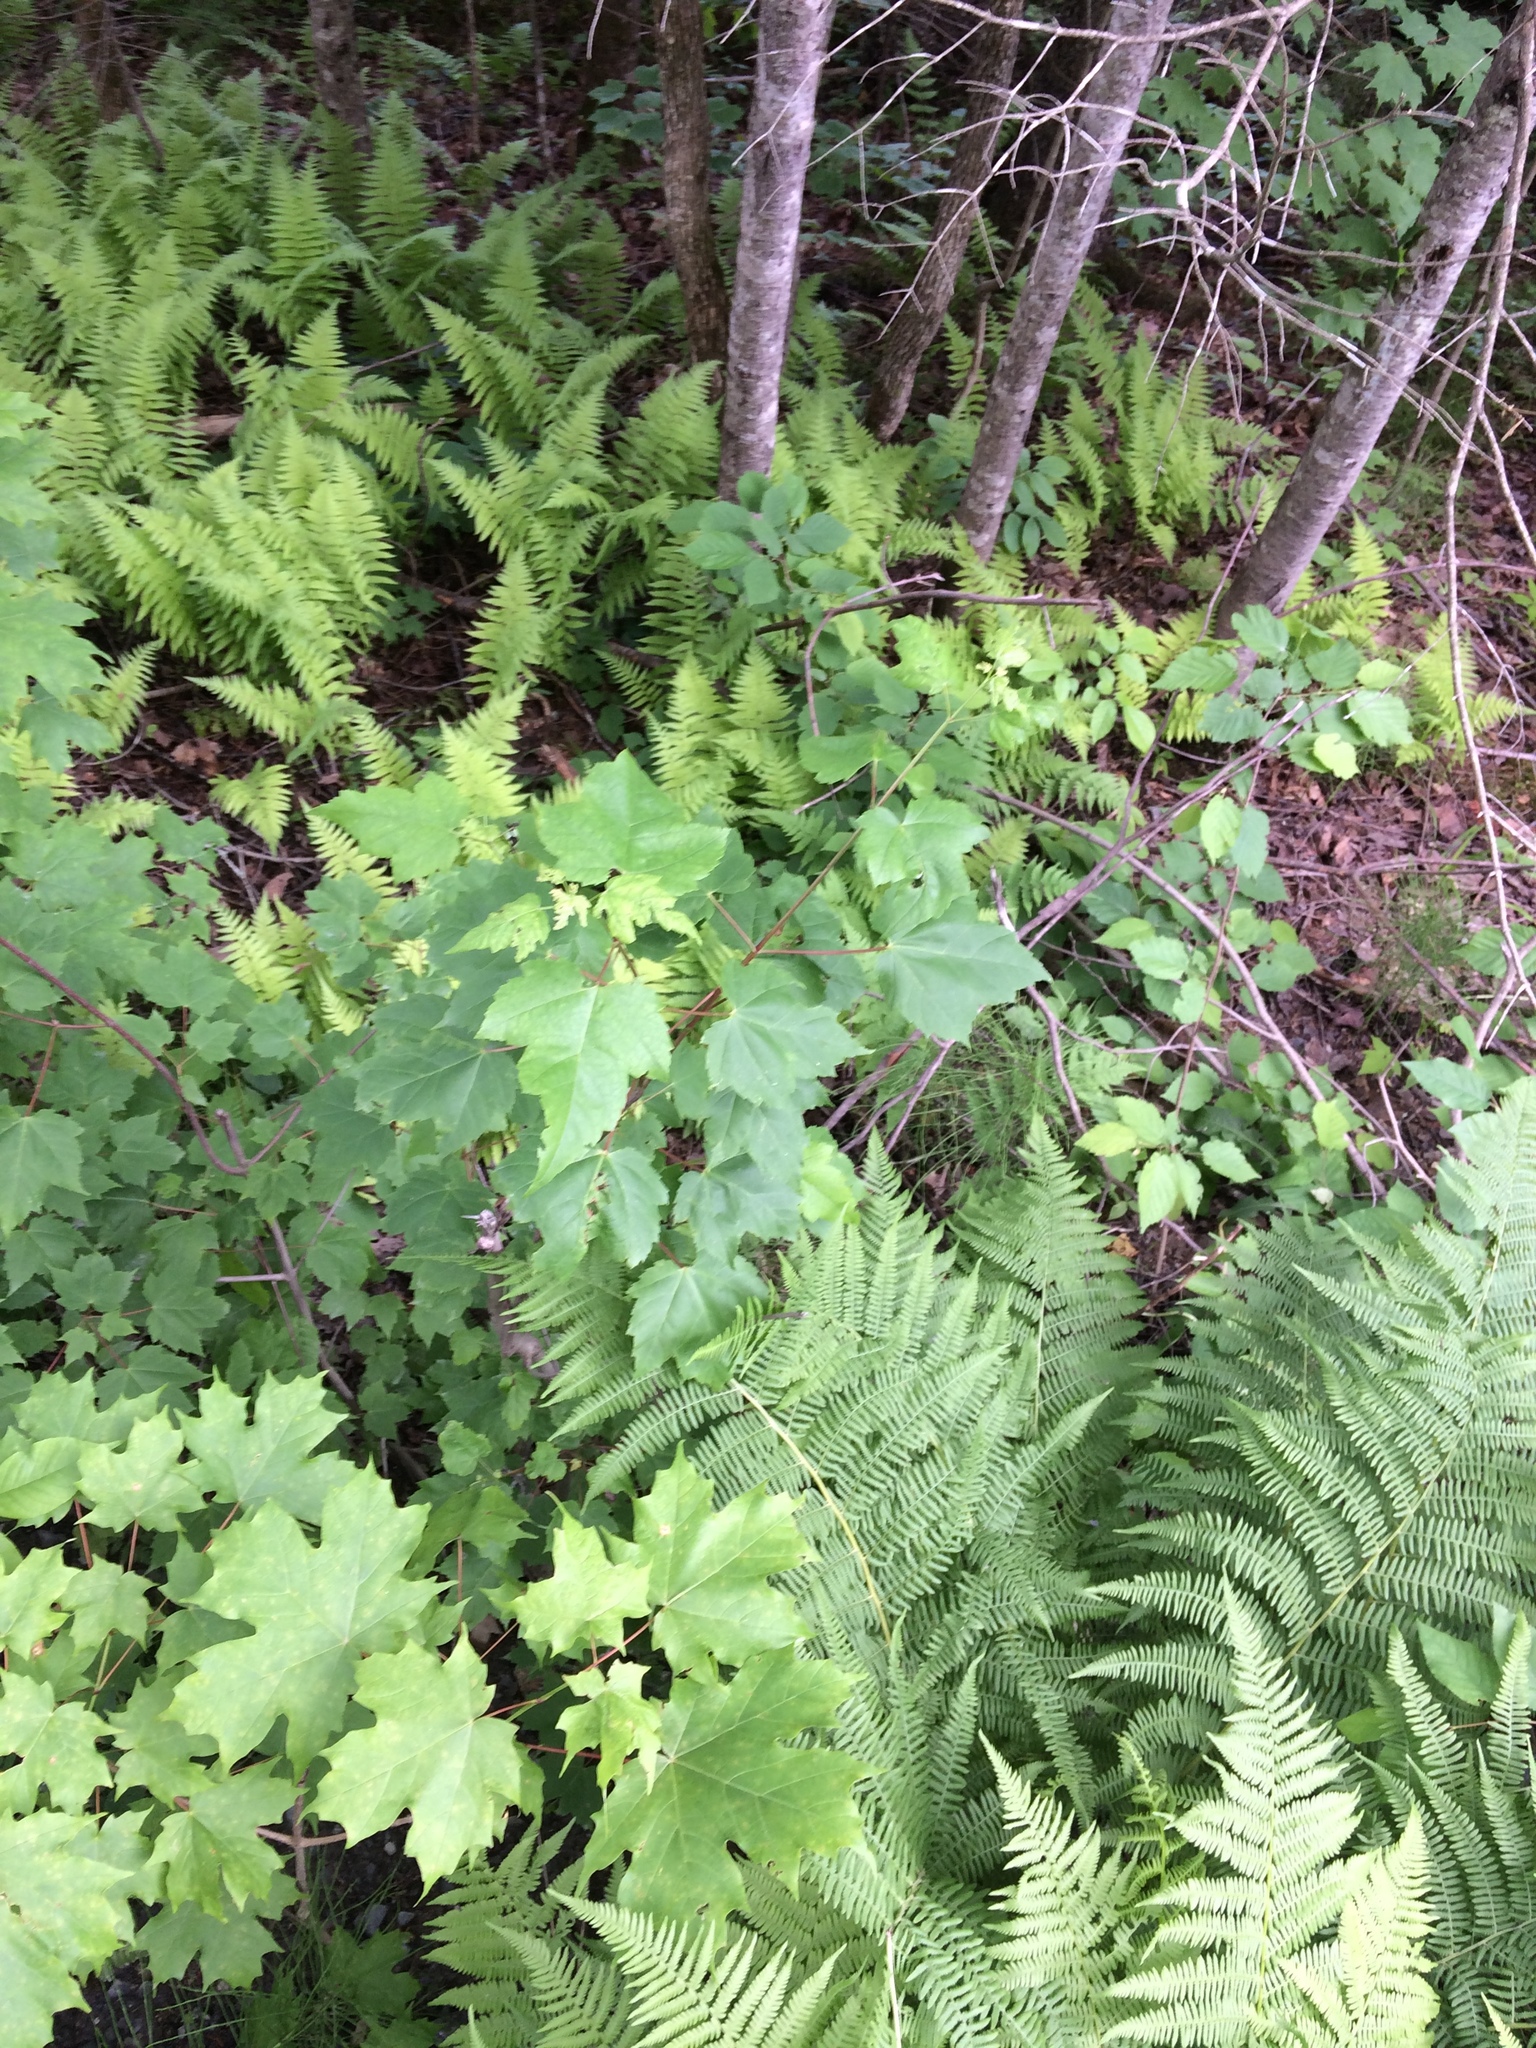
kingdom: Plantae
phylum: Tracheophyta
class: Magnoliopsida
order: Sapindales
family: Sapindaceae
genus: Acer
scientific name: Acer rubrum
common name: Red maple
